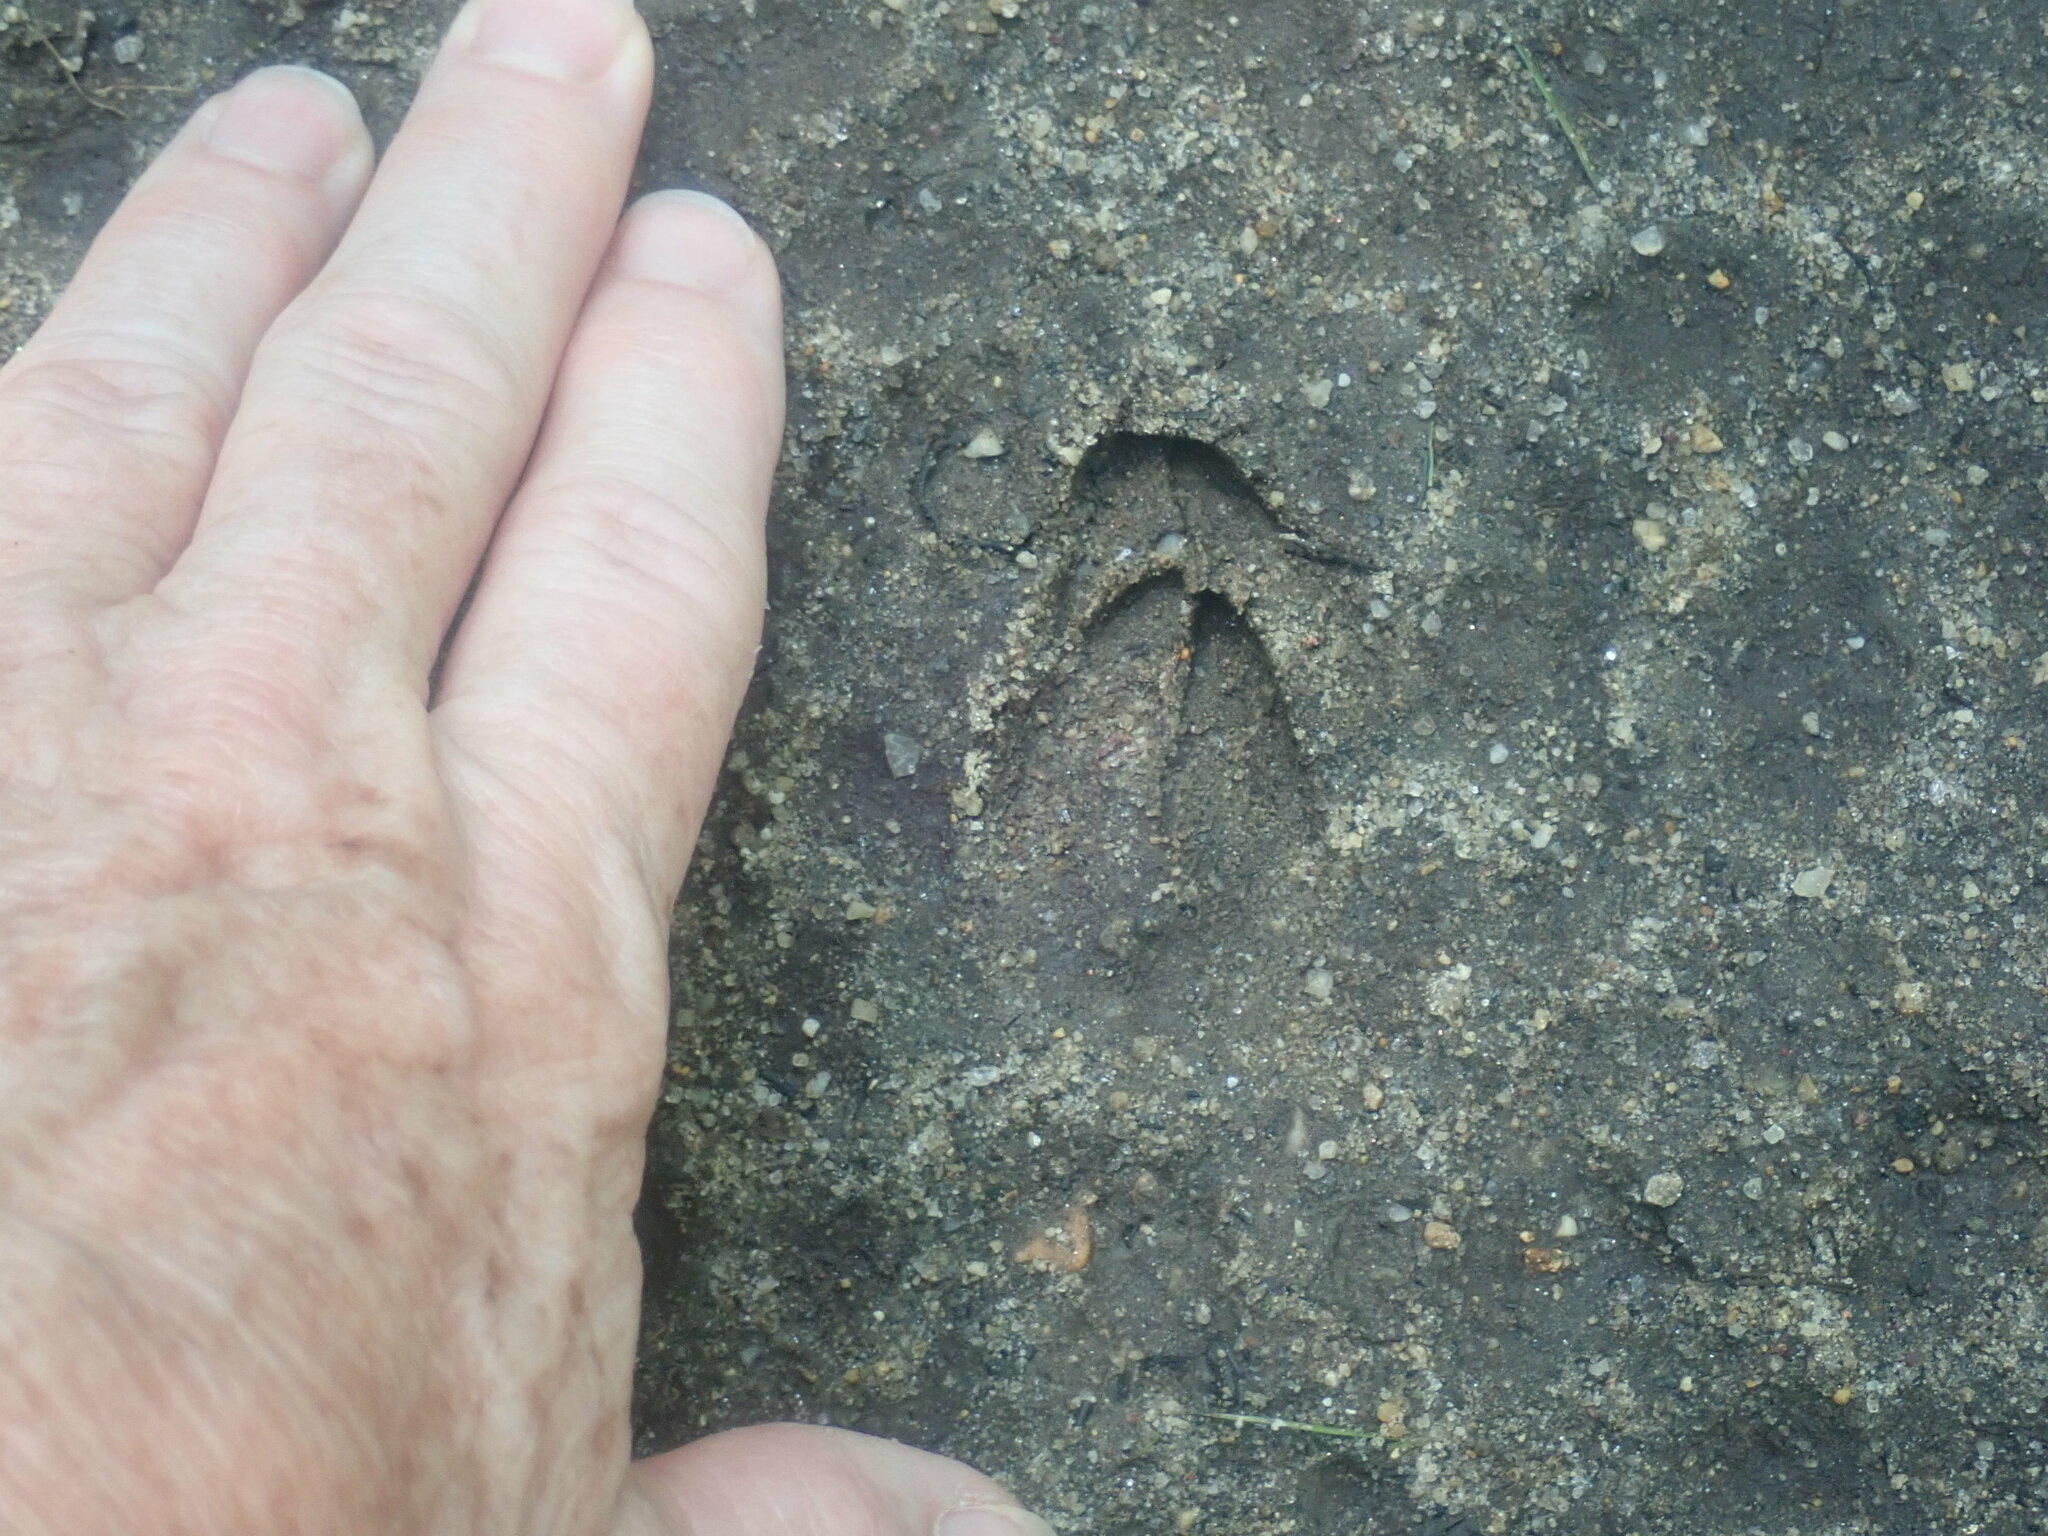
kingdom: Animalia
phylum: Chordata
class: Mammalia
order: Artiodactyla
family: Cervidae
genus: Odocoileus
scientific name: Odocoileus virginianus
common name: White-tailed deer
